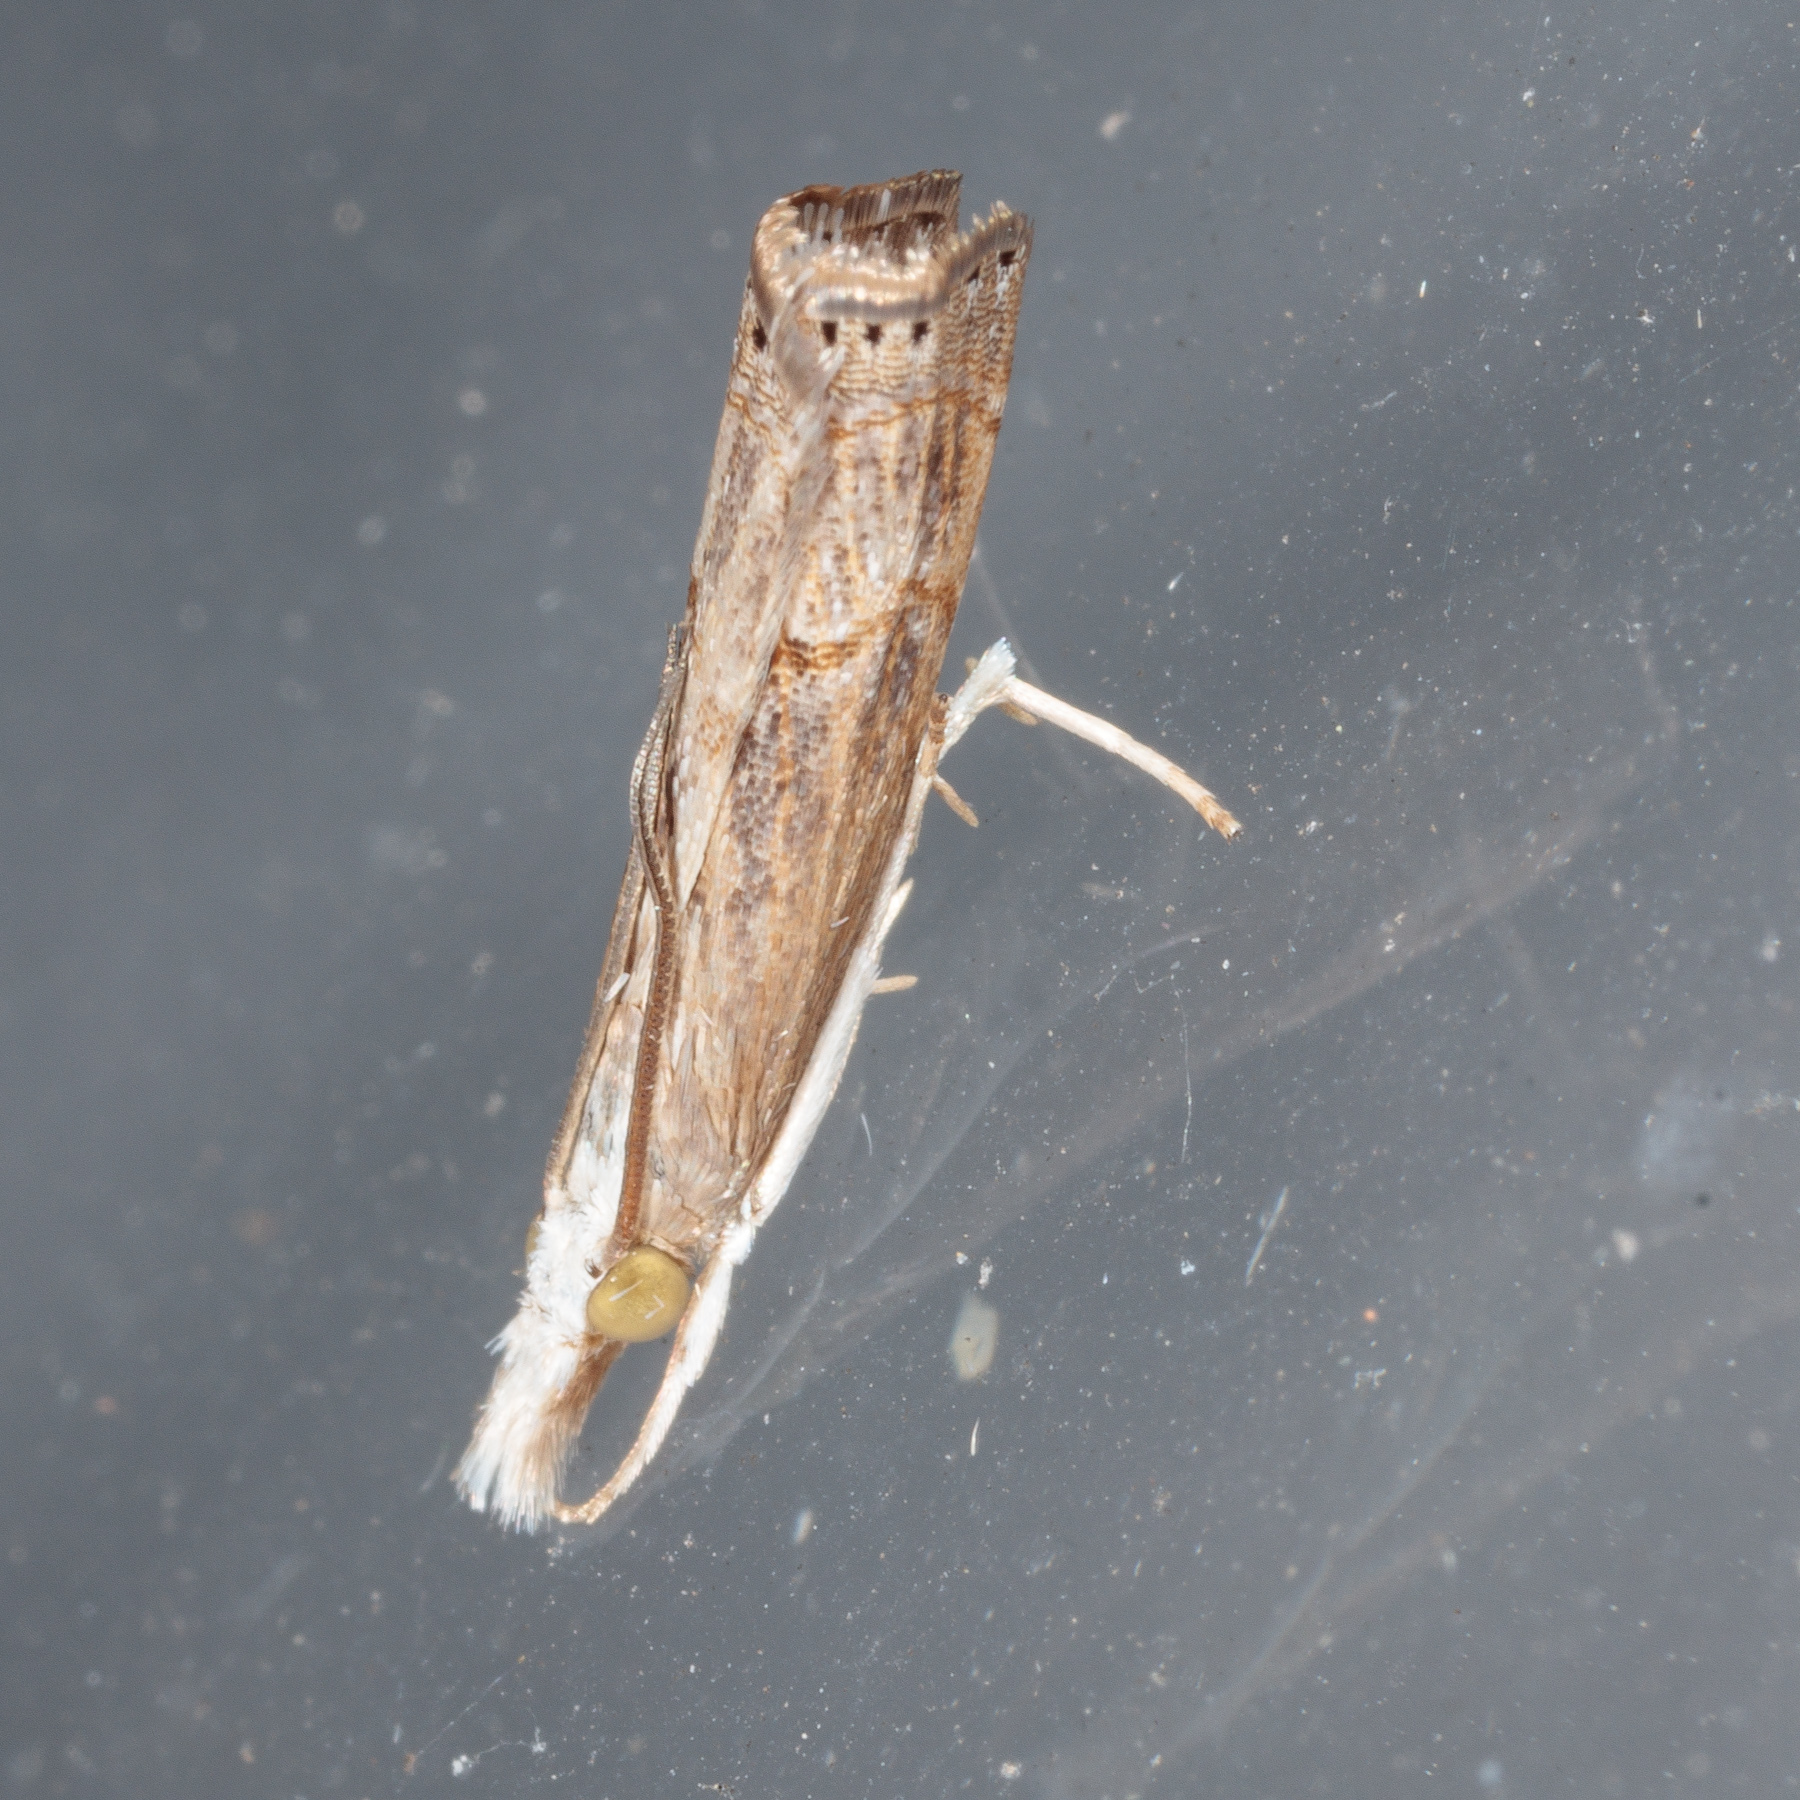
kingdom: Animalia
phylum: Arthropoda
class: Insecta
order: Lepidoptera
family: Crambidae
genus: Parapediasia
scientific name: Parapediasia teterellus
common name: Bluegrass webworm moth
